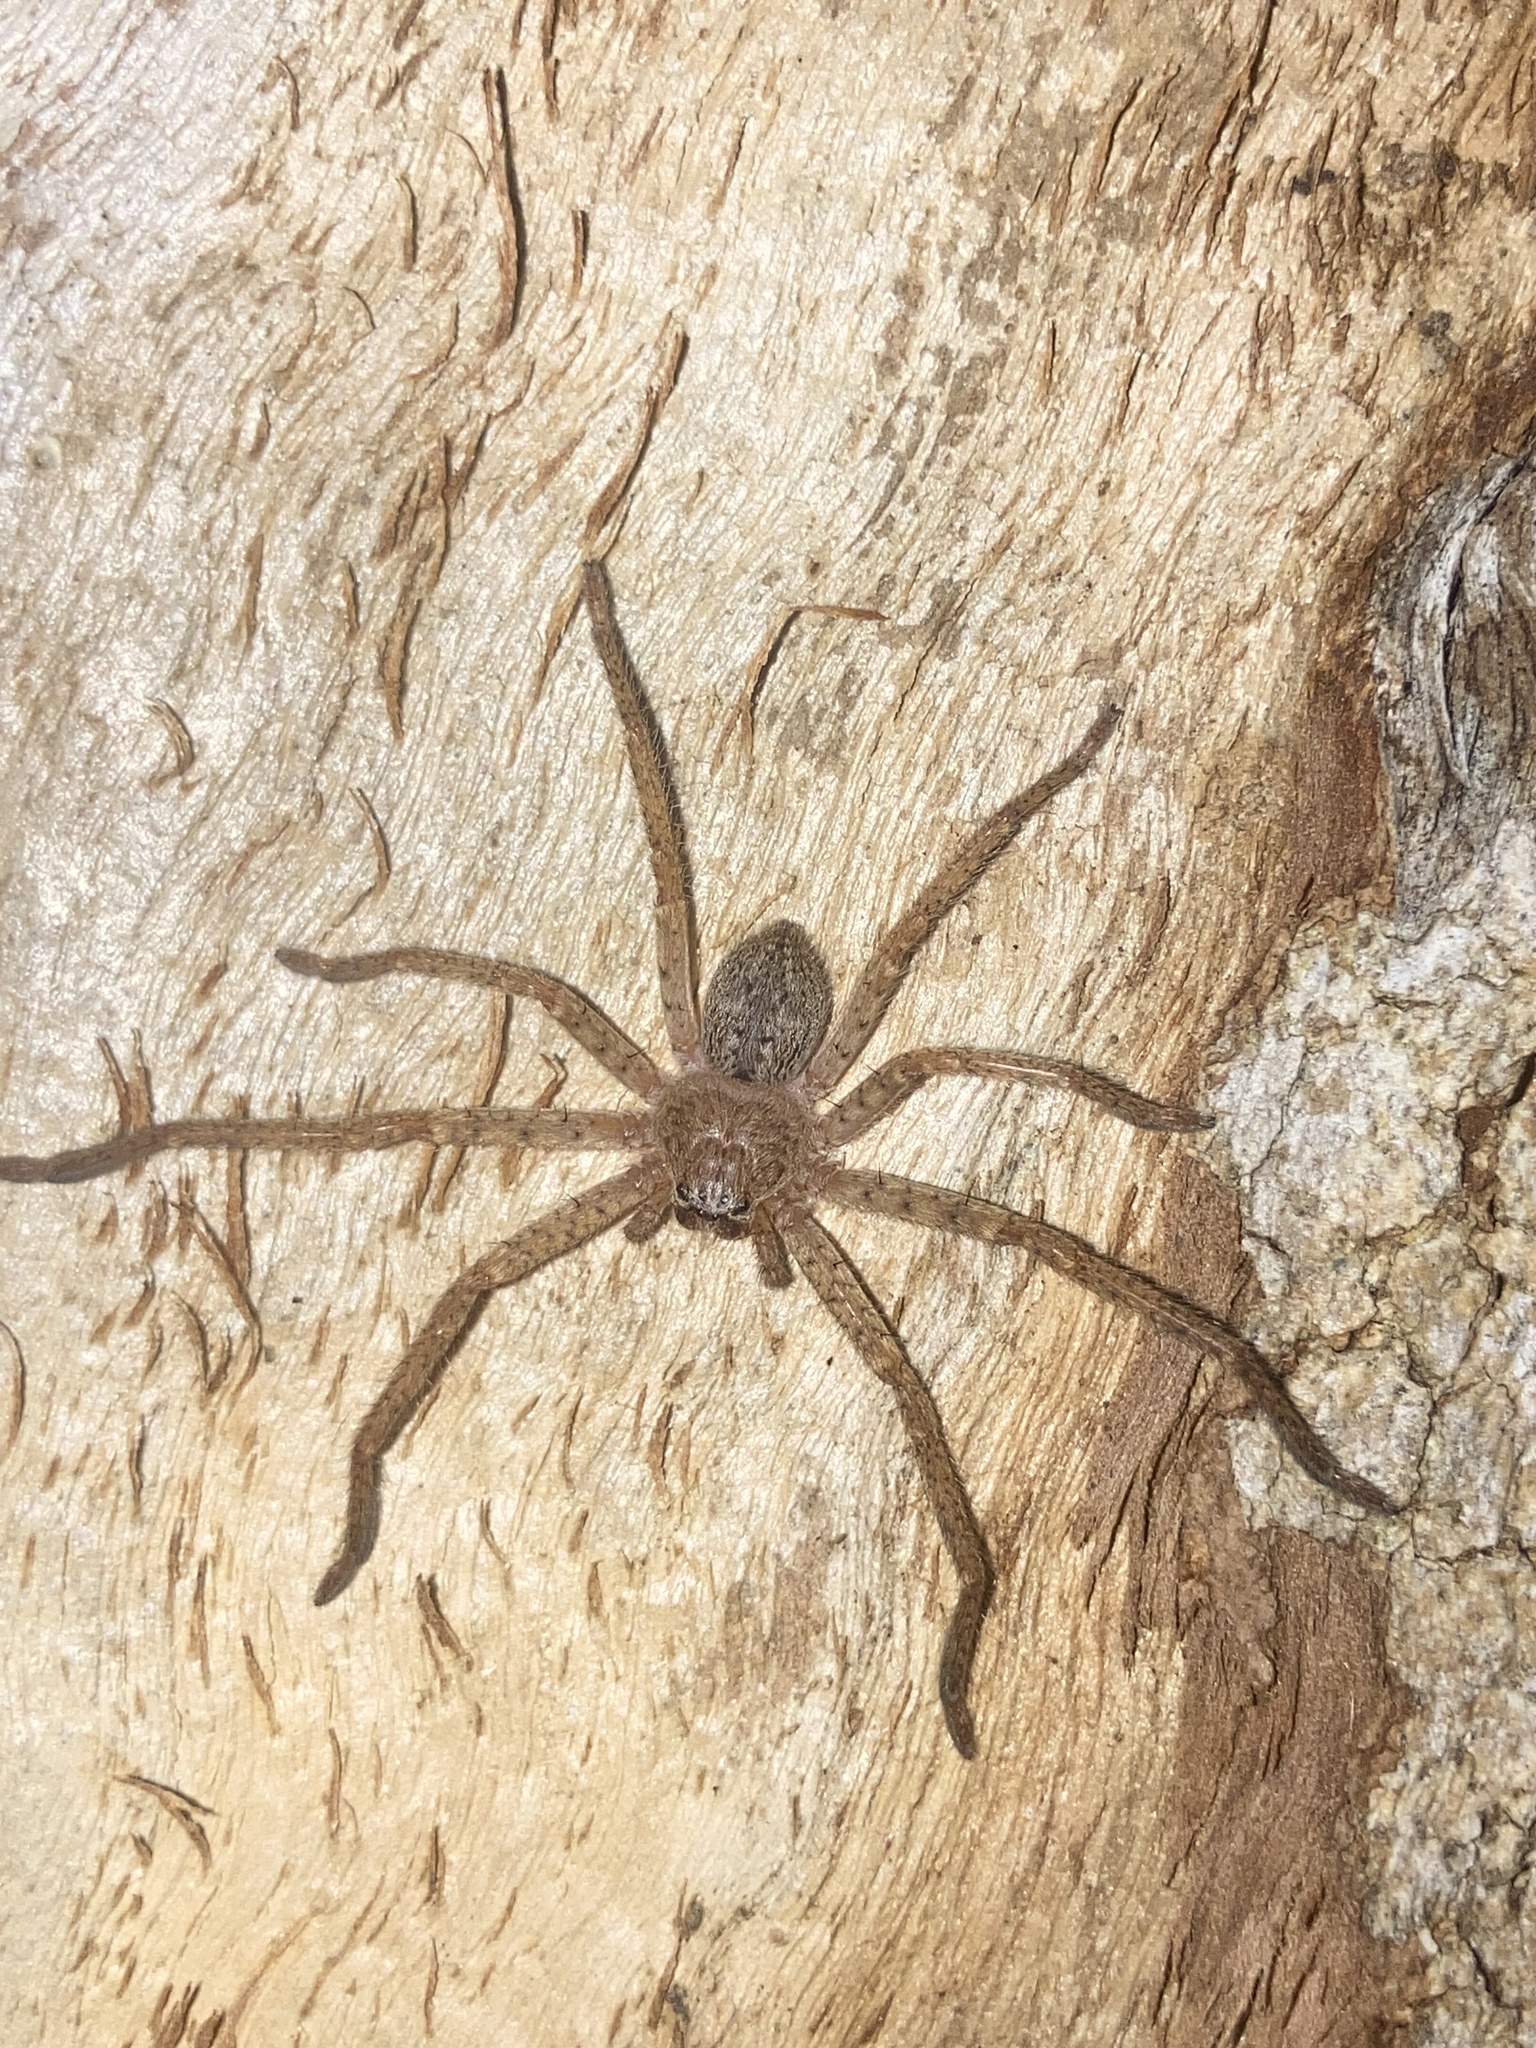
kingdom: Animalia
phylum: Arthropoda
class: Arachnida
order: Araneae
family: Sparassidae
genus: Isopeda
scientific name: Isopeda villosa
